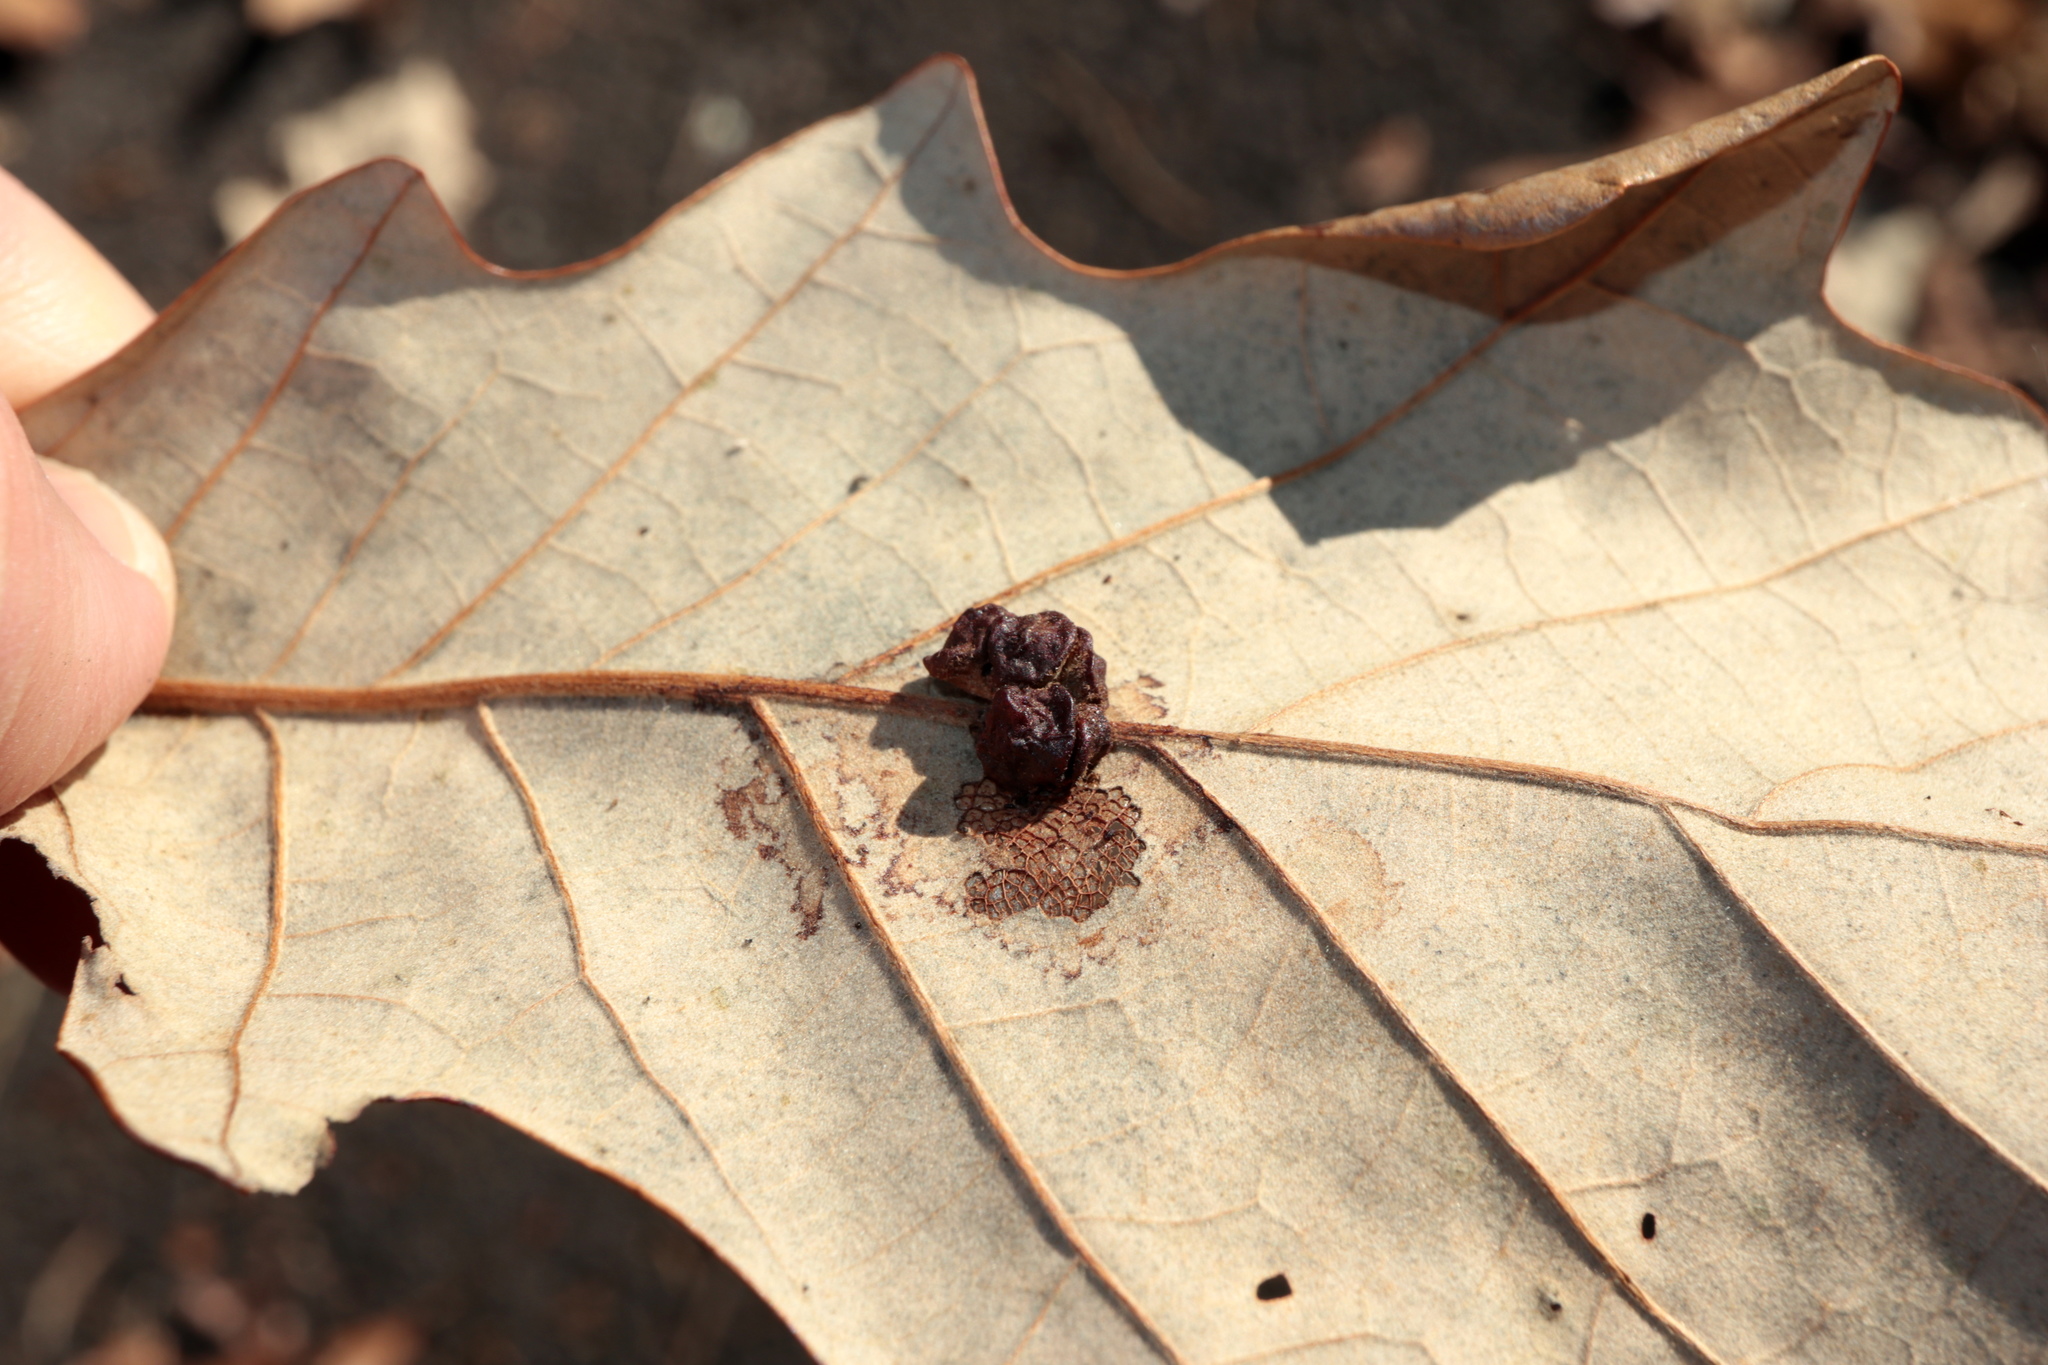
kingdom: Animalia
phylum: Arthropoda
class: Insecta
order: Hymenoptera
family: Cynipidae
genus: Andricus
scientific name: Andricus
